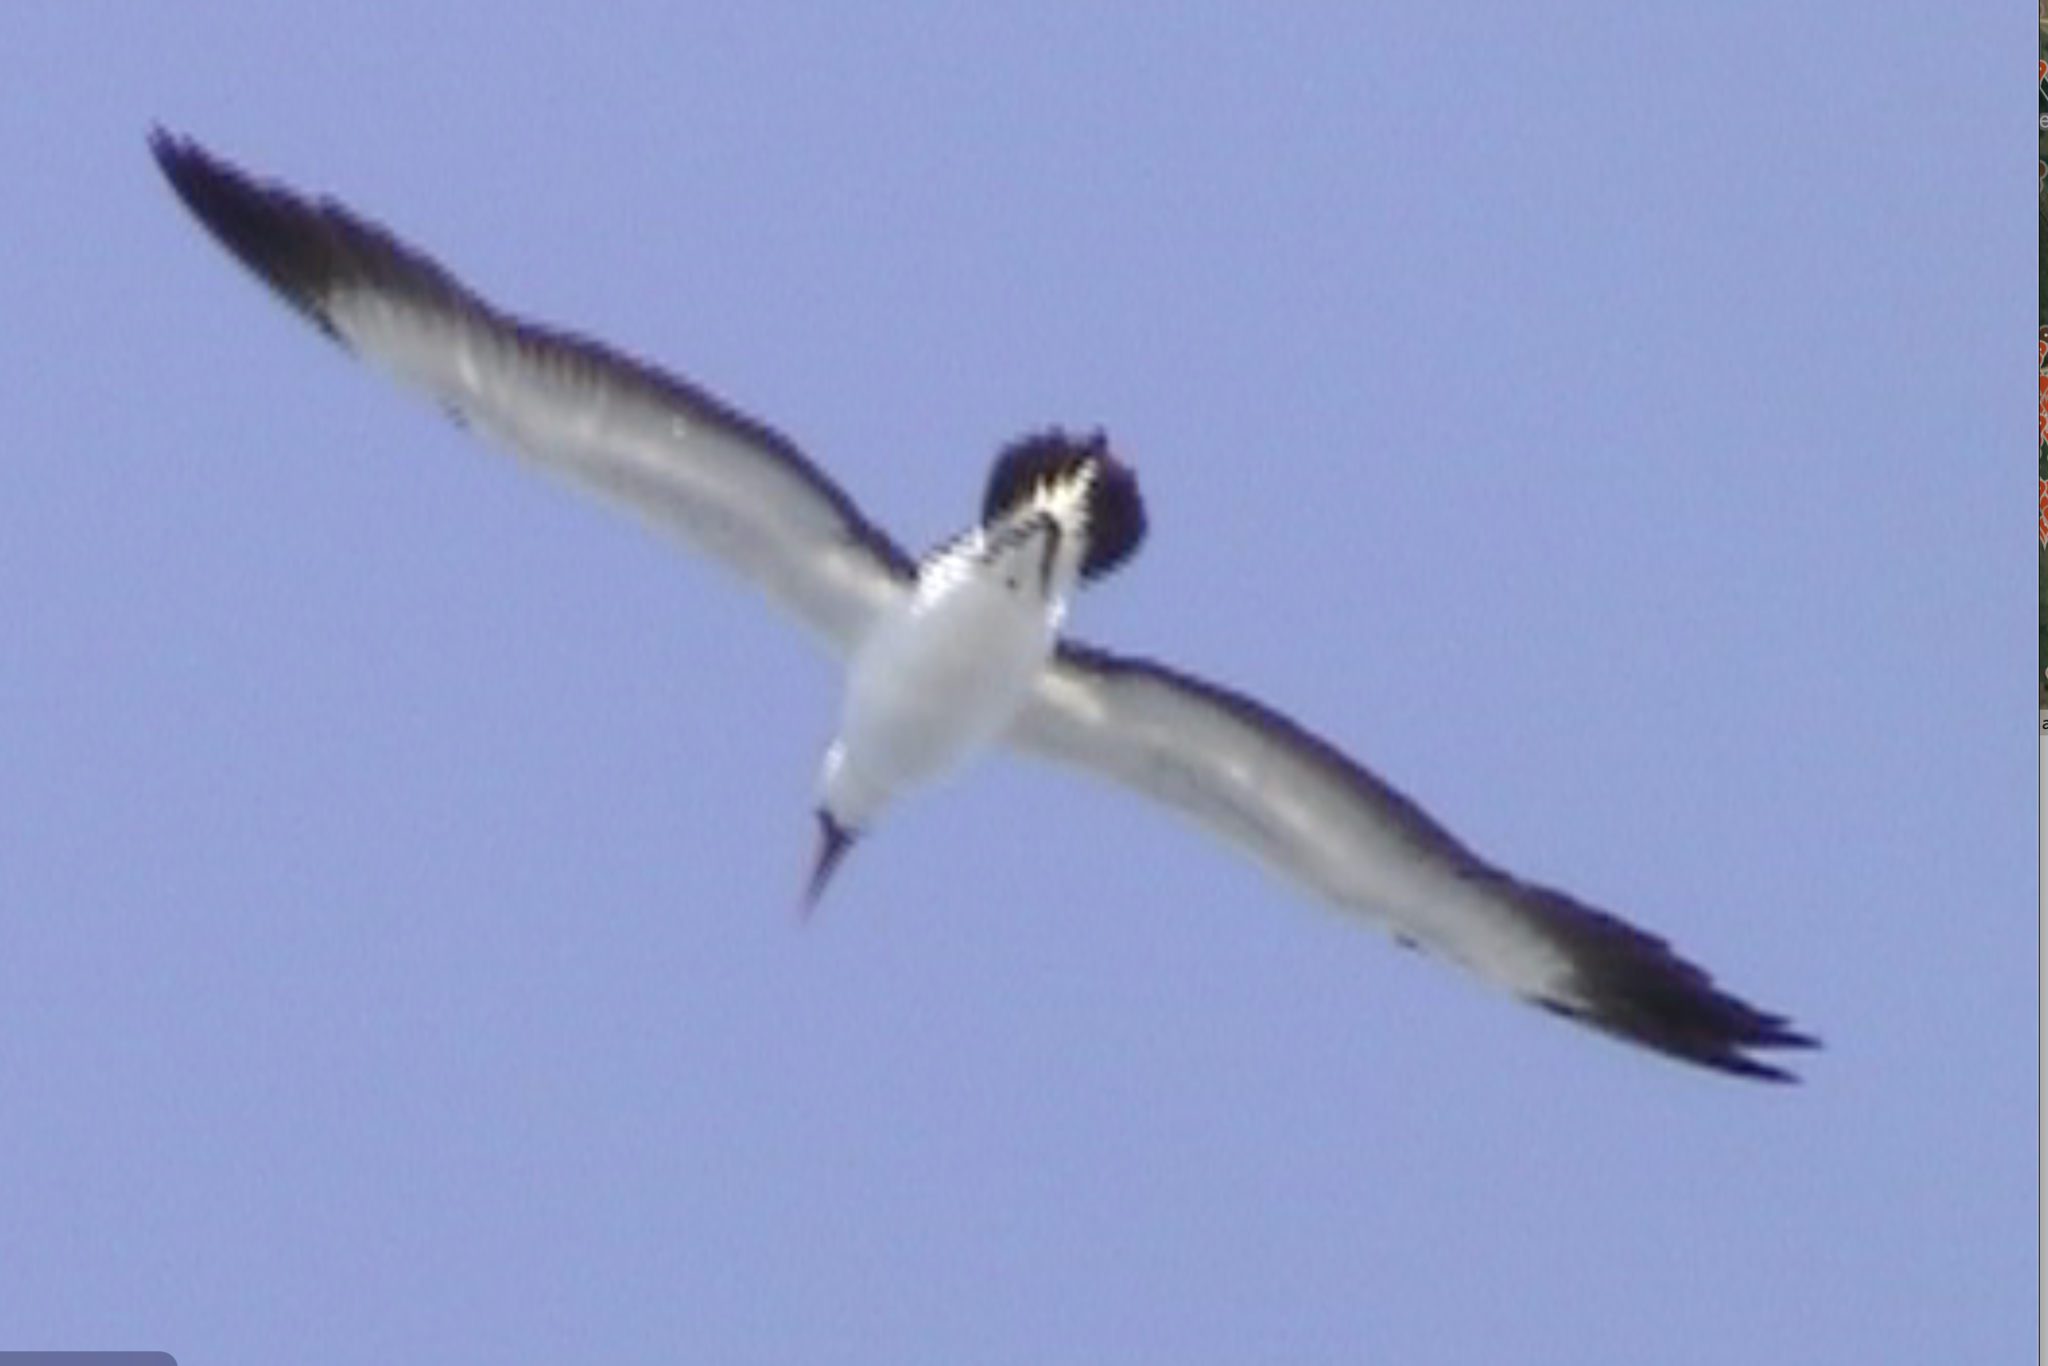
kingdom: Animalia
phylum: Chordata
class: Aves
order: Suliformes
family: Sulidae
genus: Sula
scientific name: Sula dactylatra
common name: Masked booby
